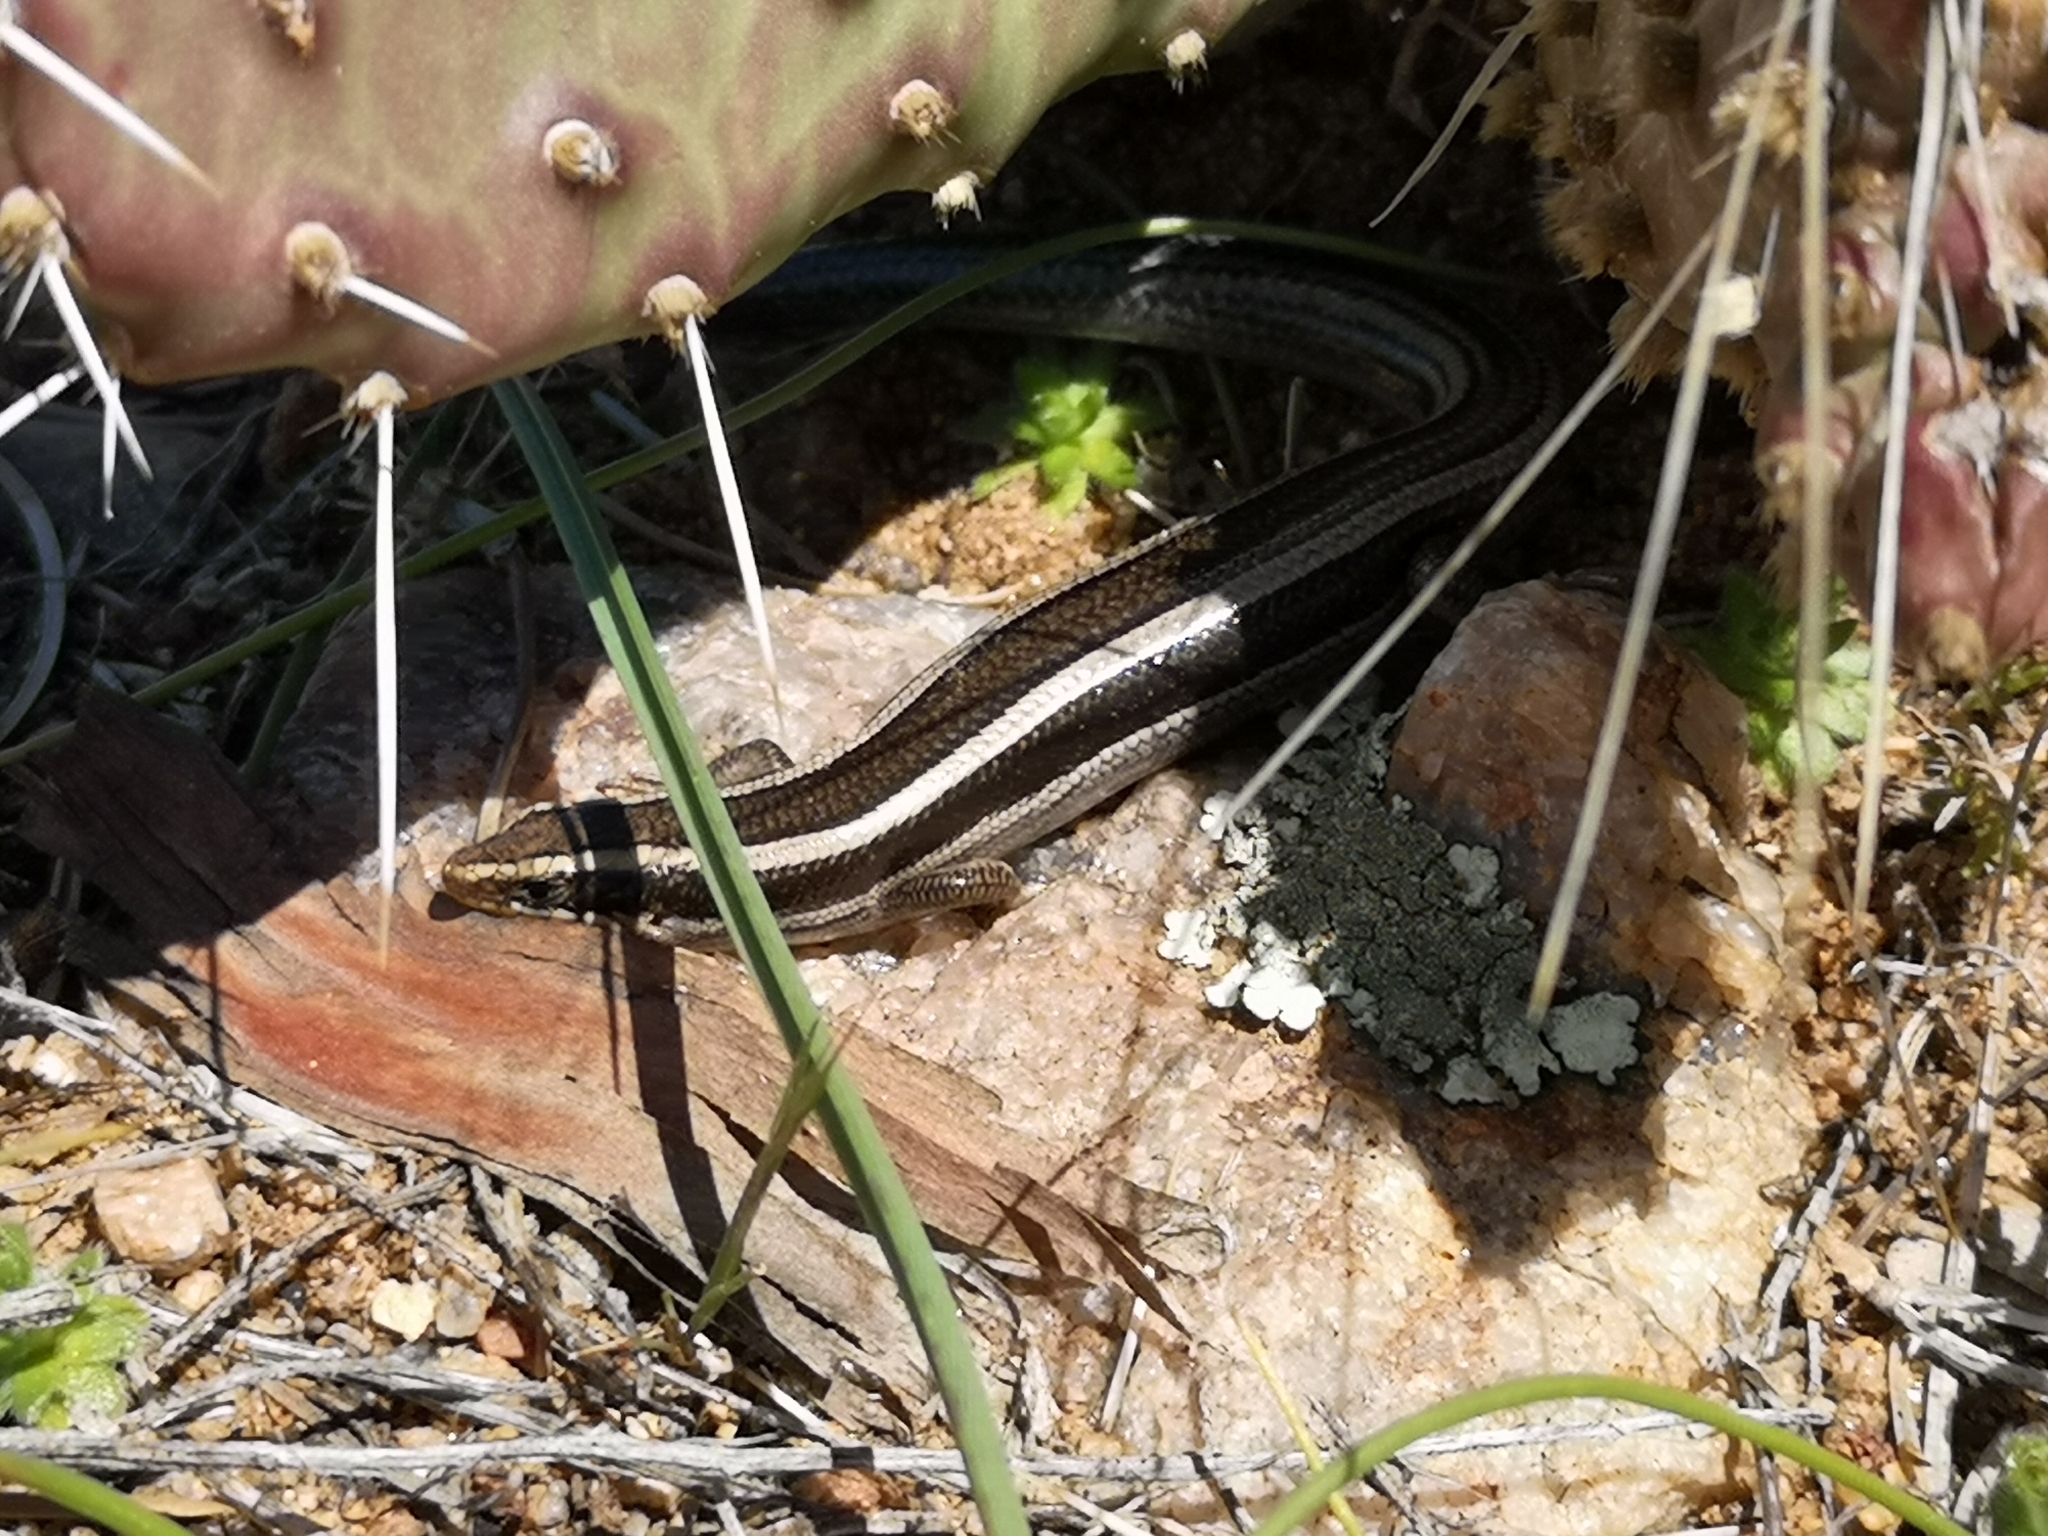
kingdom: Animalia
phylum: Chordata
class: Squamata
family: Scincidae
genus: Plestiodon
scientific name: Plestiodon skiltonianus
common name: Coronado island skink [interparietalis]
